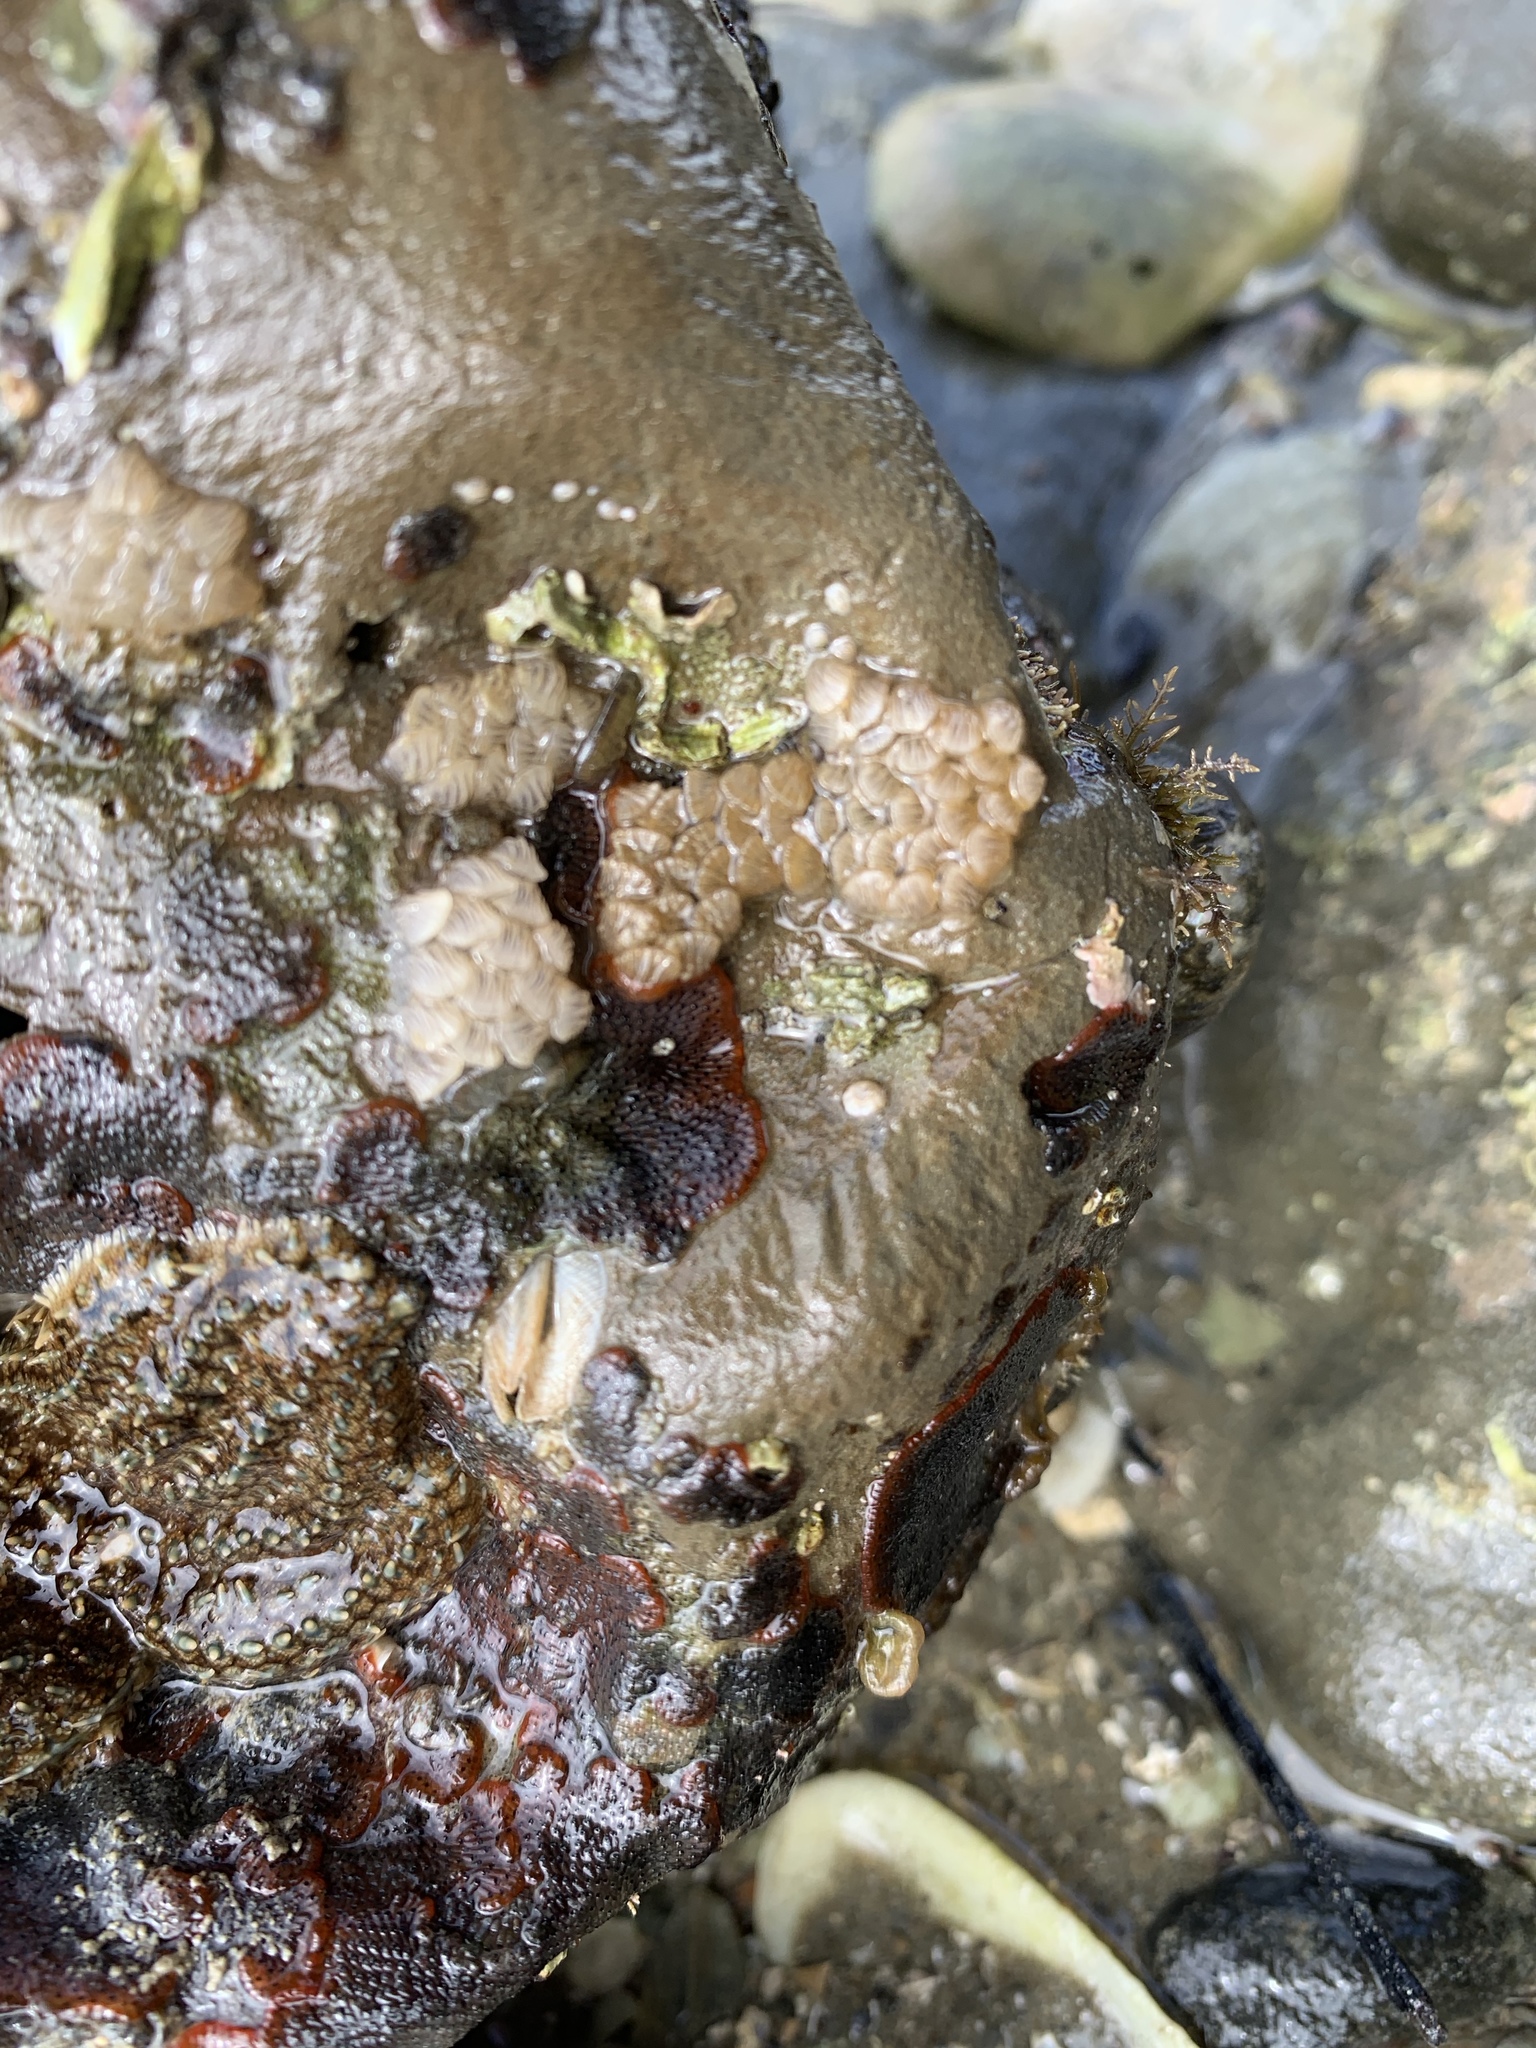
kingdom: Animalia
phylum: Mollusca
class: Gastropoda
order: Neogastropoda
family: Cominellidae
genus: Cominella
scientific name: Cominella virgata
